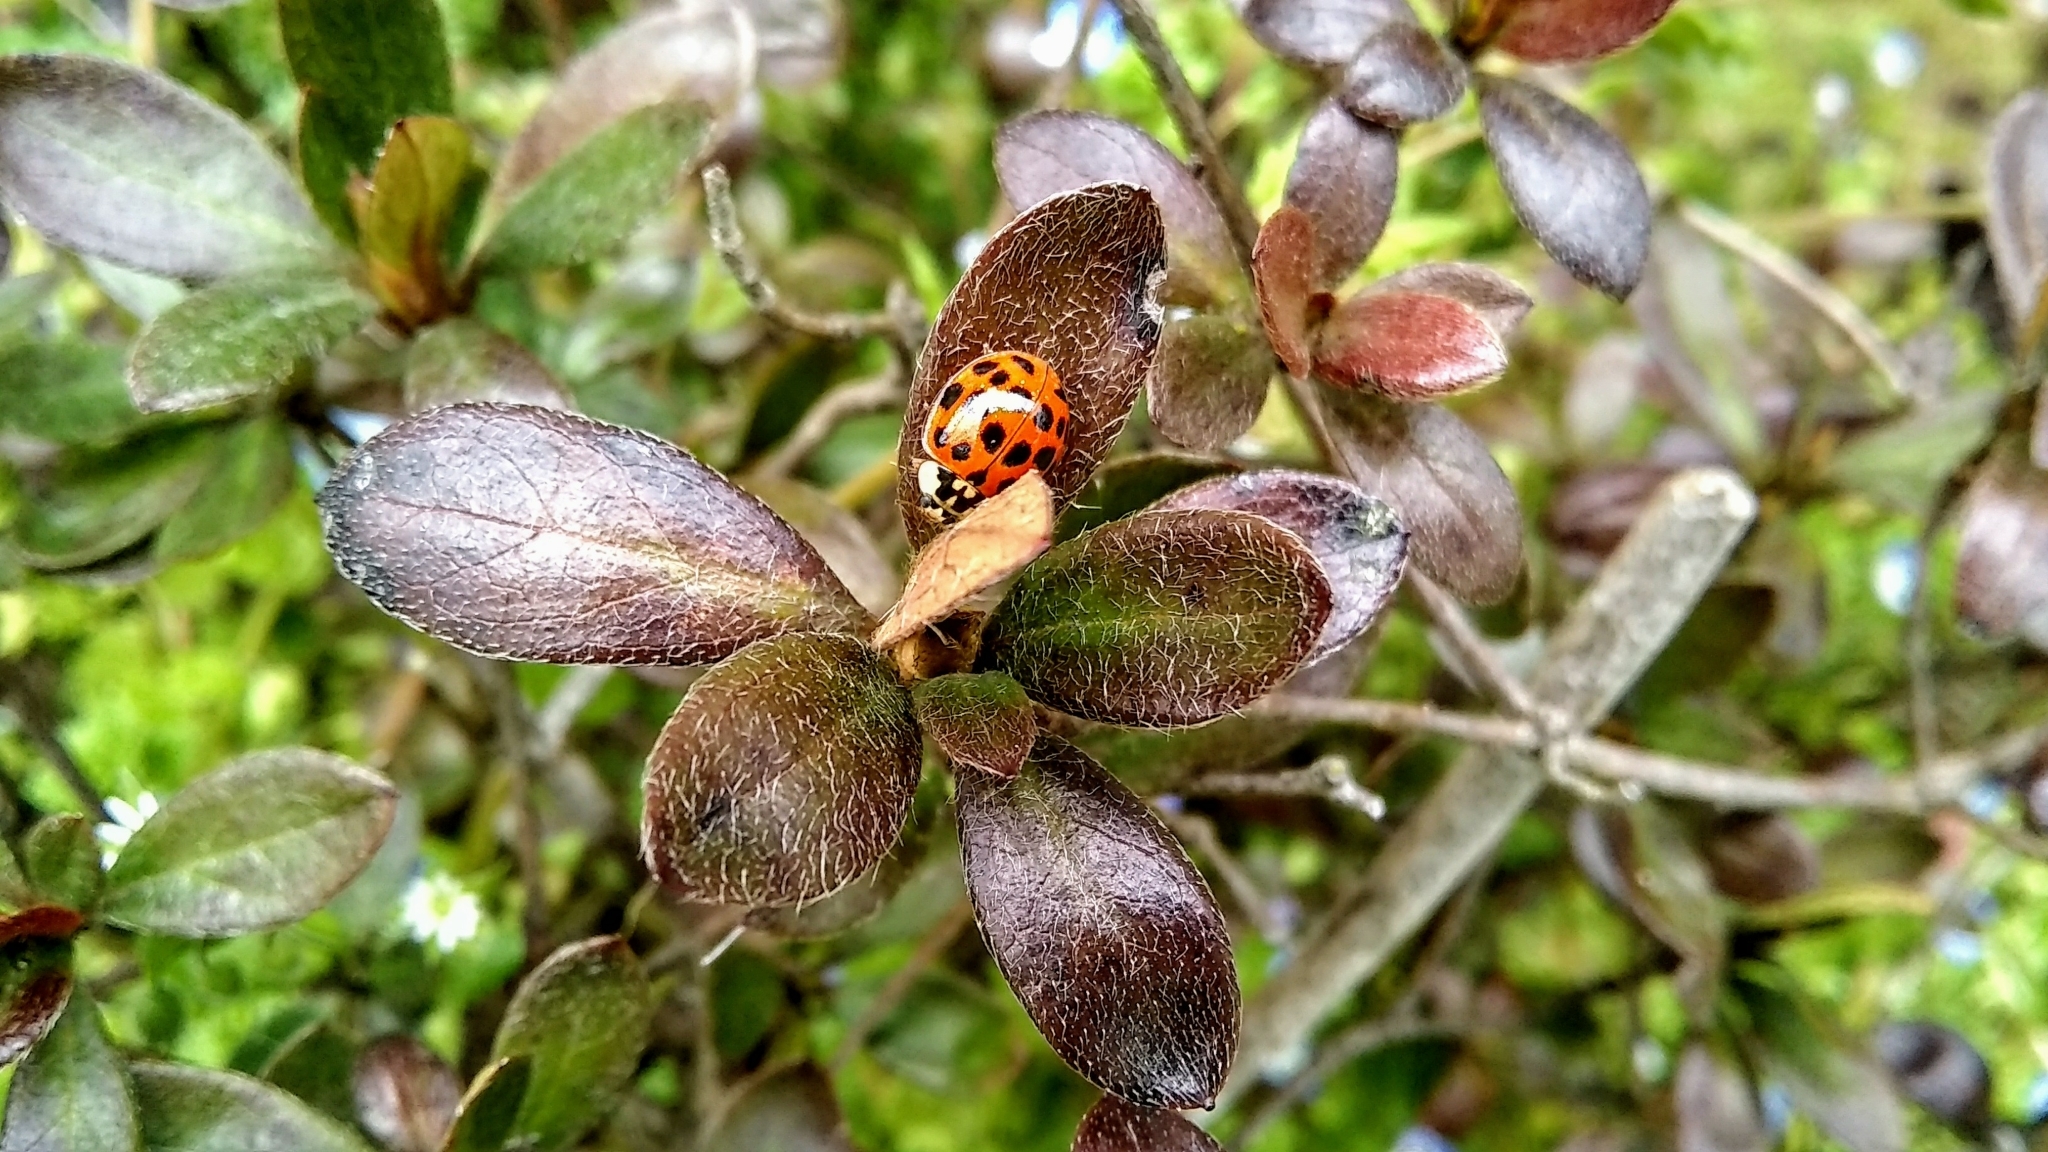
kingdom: Animalia
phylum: Arthropoda
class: Insecta
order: Coleoptera
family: Coccinellidae
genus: Harmonia
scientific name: Harmonia axyridis
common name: Harlequin ladybird
